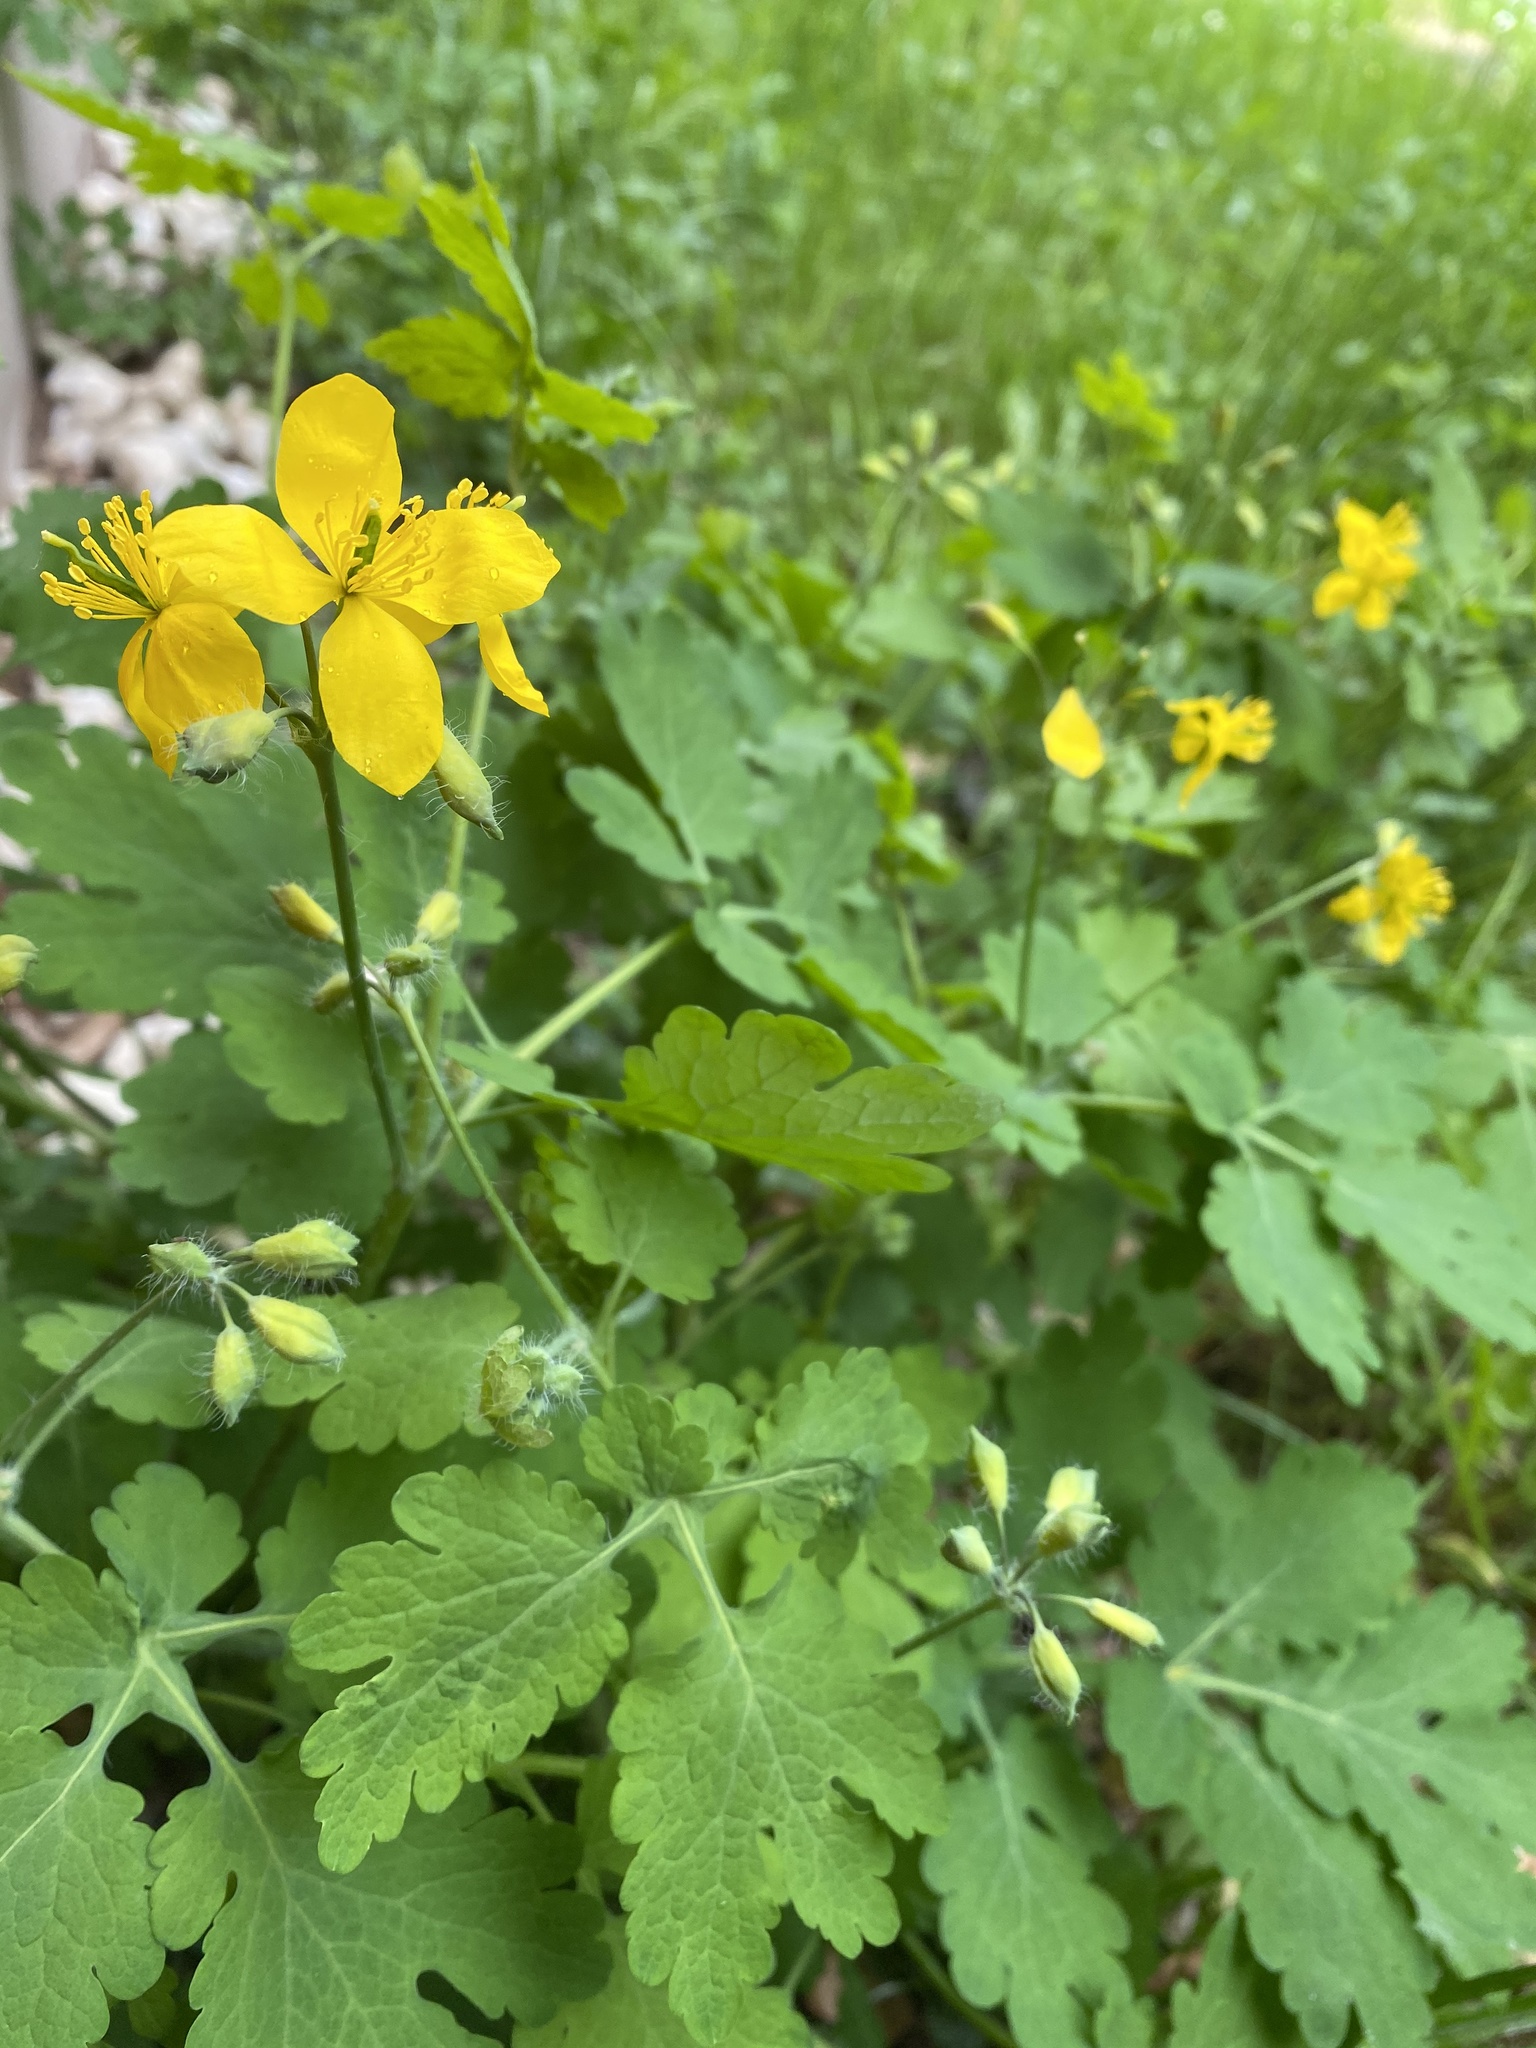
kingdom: Plantae
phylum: Tracheophyta
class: Magnoliopsida
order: Ranunculales
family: Papaveraceae
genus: Chelidonium
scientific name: Chelidonium majus
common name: Greater celandine
